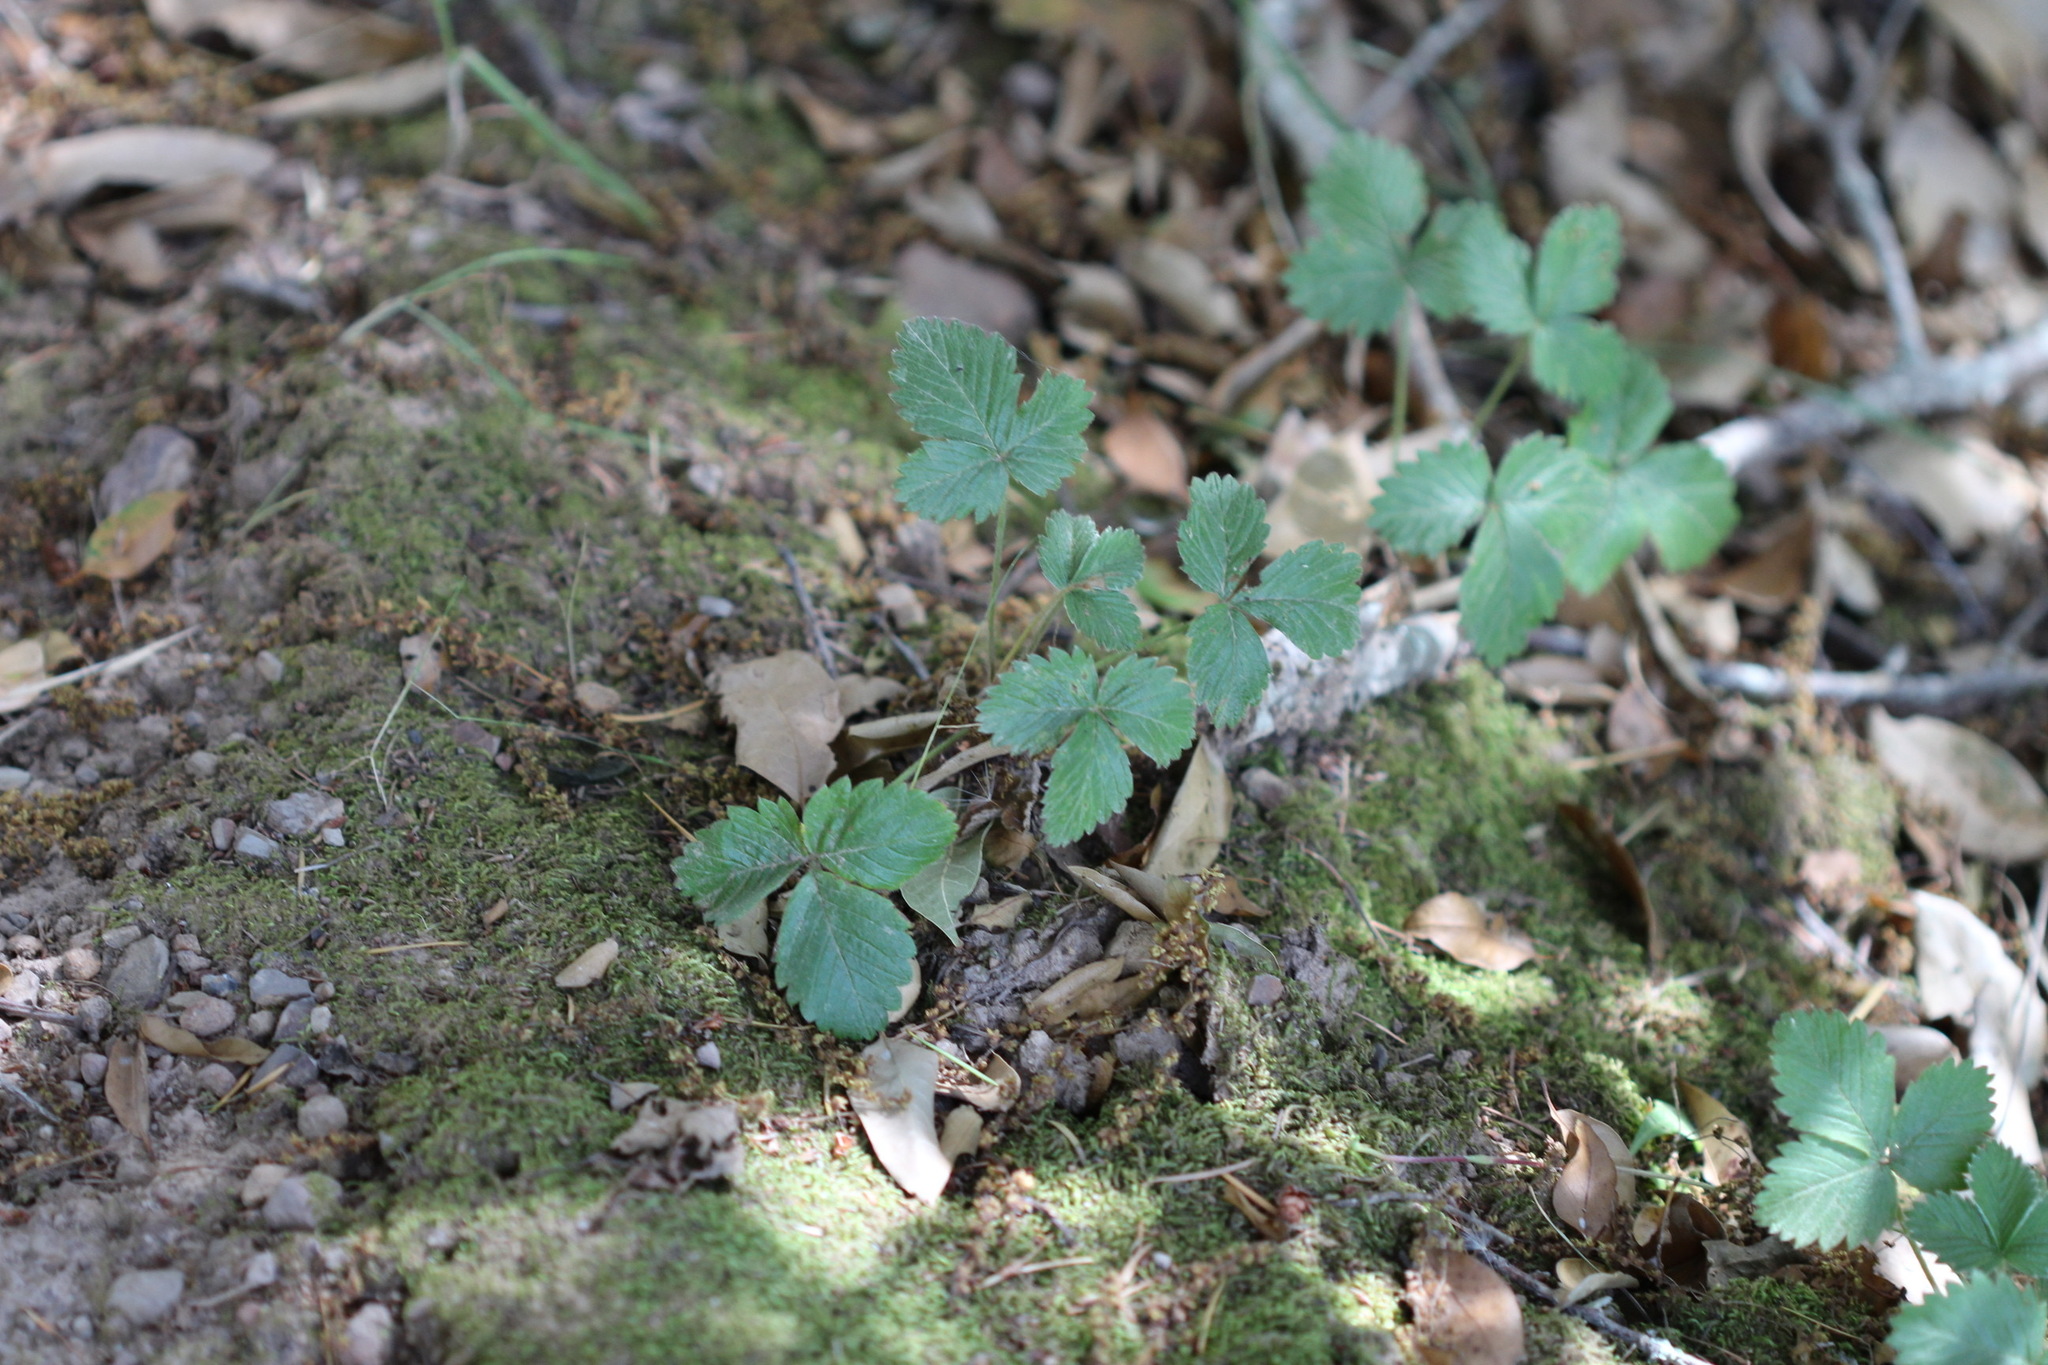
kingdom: Plantae
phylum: Tracheophyta
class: Magnoliopsida
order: Rosales
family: Rosaceae
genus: Fragaria
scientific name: Fragaria vesca
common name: Wild strawberry
